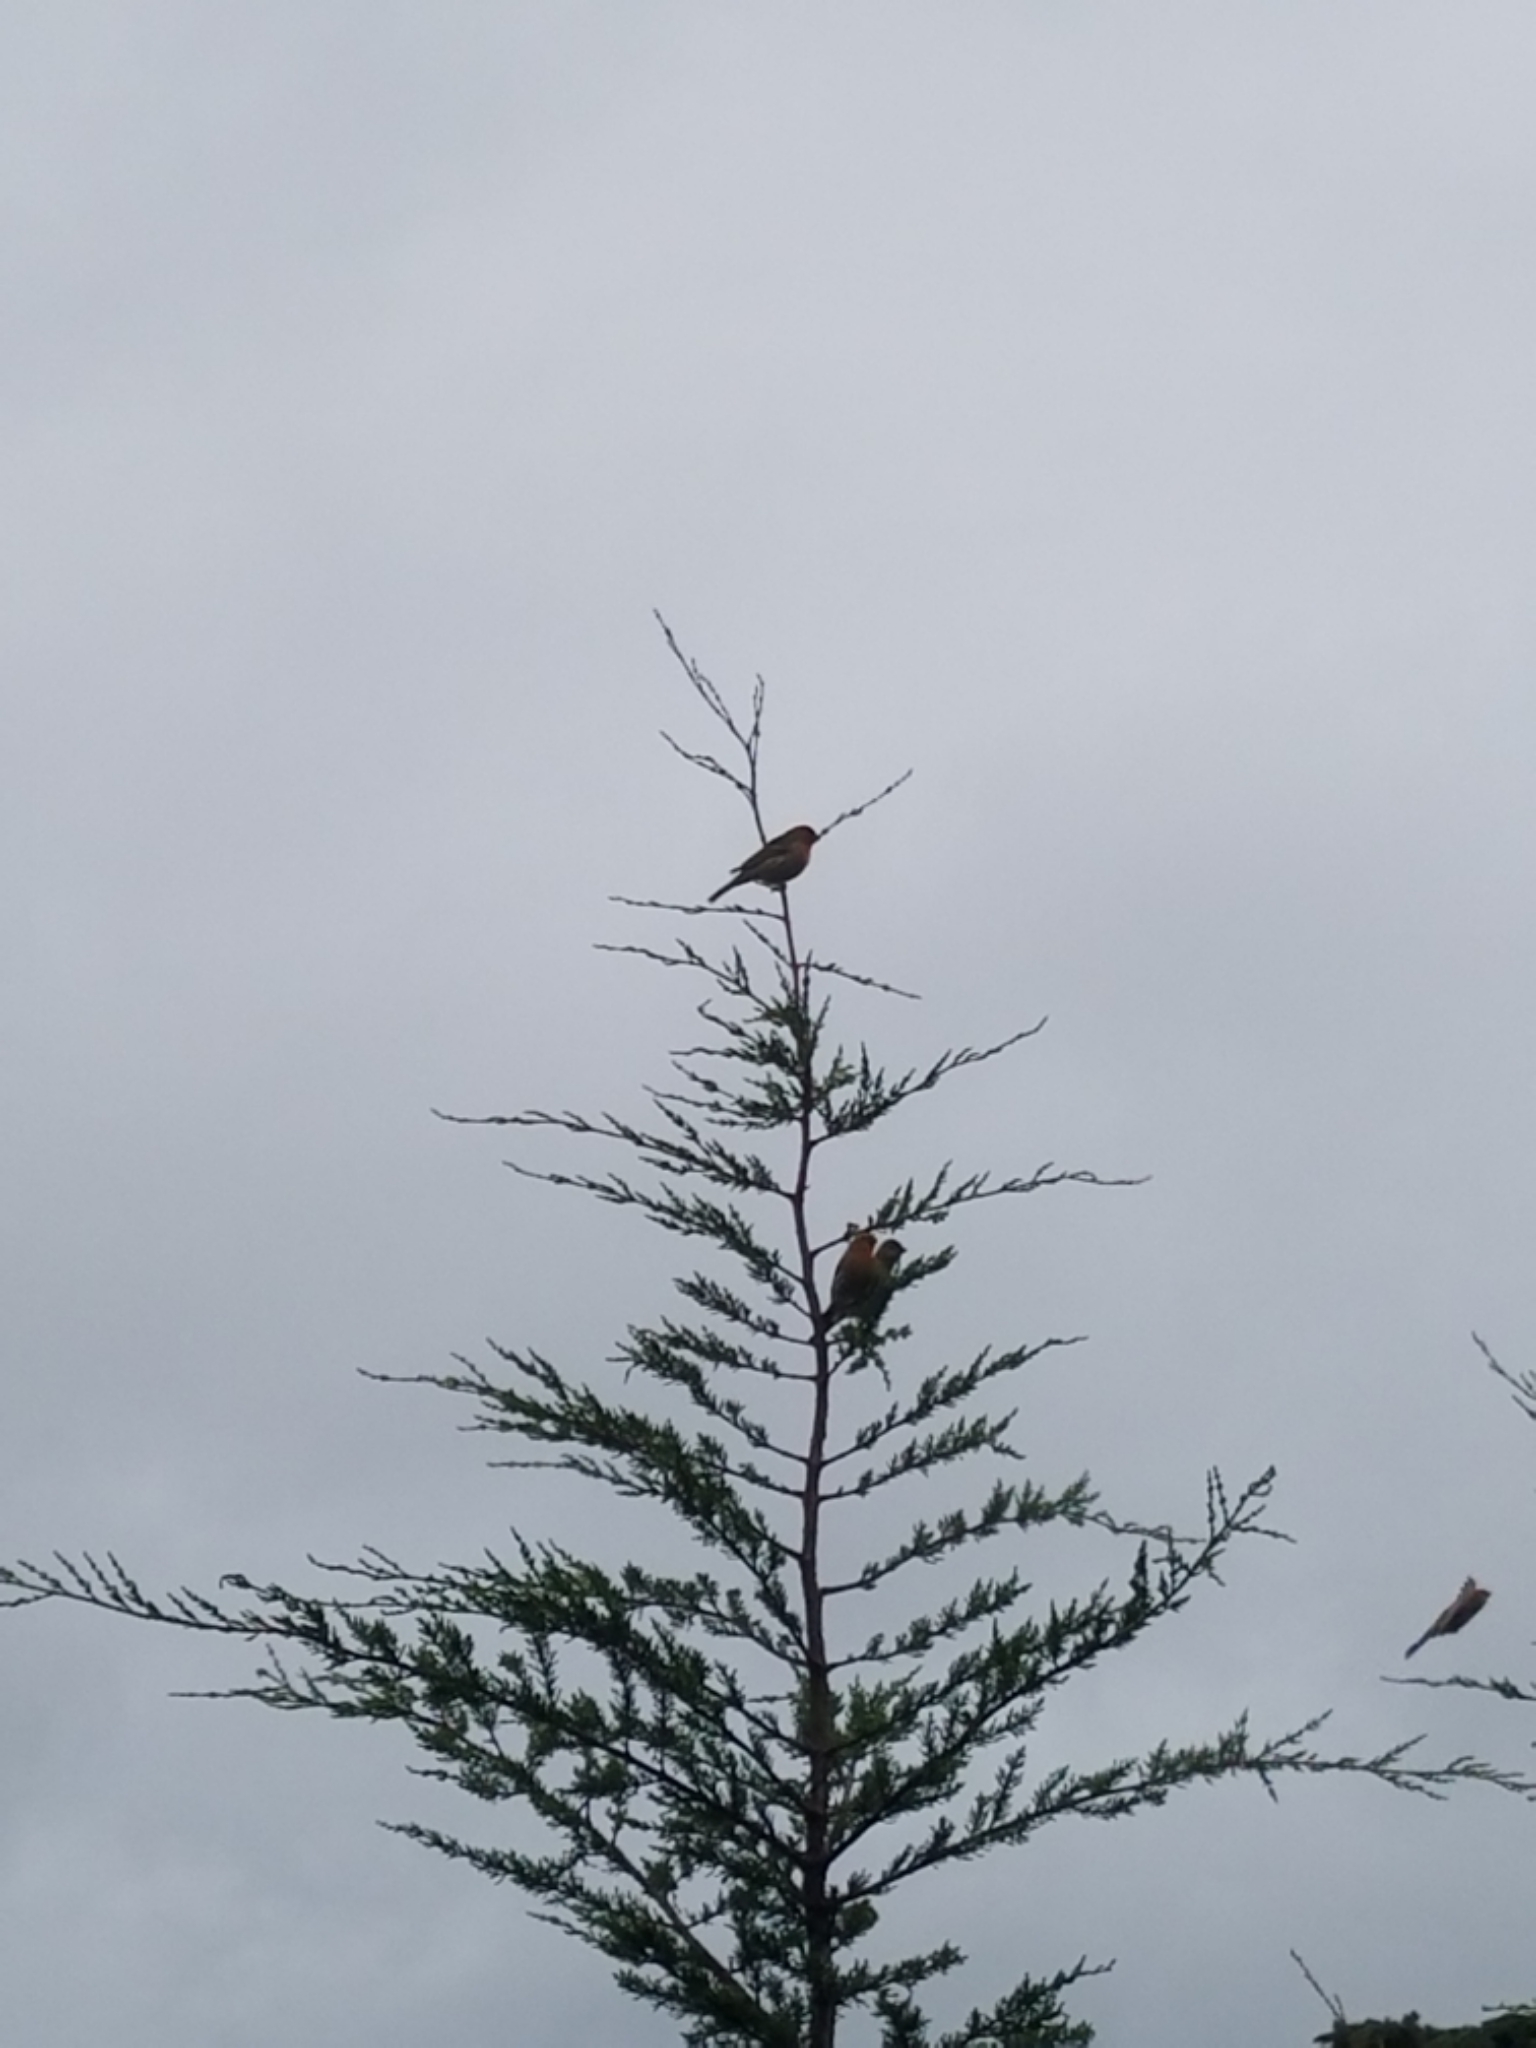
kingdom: Animalia
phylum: Chordata
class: Aves
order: Passeriformes
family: Fringillidae
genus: Haemorhous
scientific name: Haemorhous mexicanus
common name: House finch
